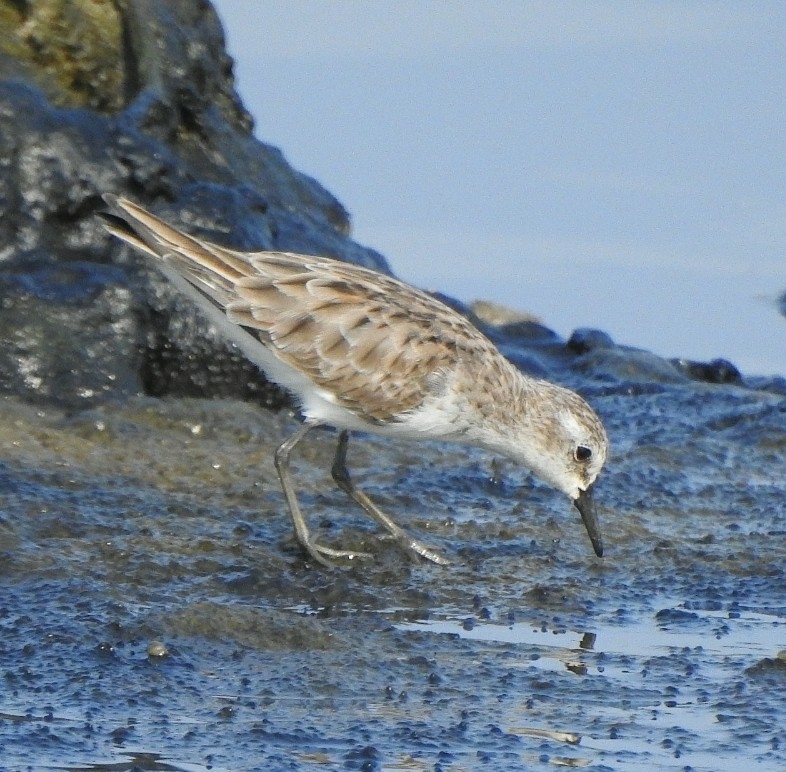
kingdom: Animalia
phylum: Chordata
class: Aves
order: Charadriiformes
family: Scolopacidae
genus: Calidris
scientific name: Calidris minuta
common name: Little stint
